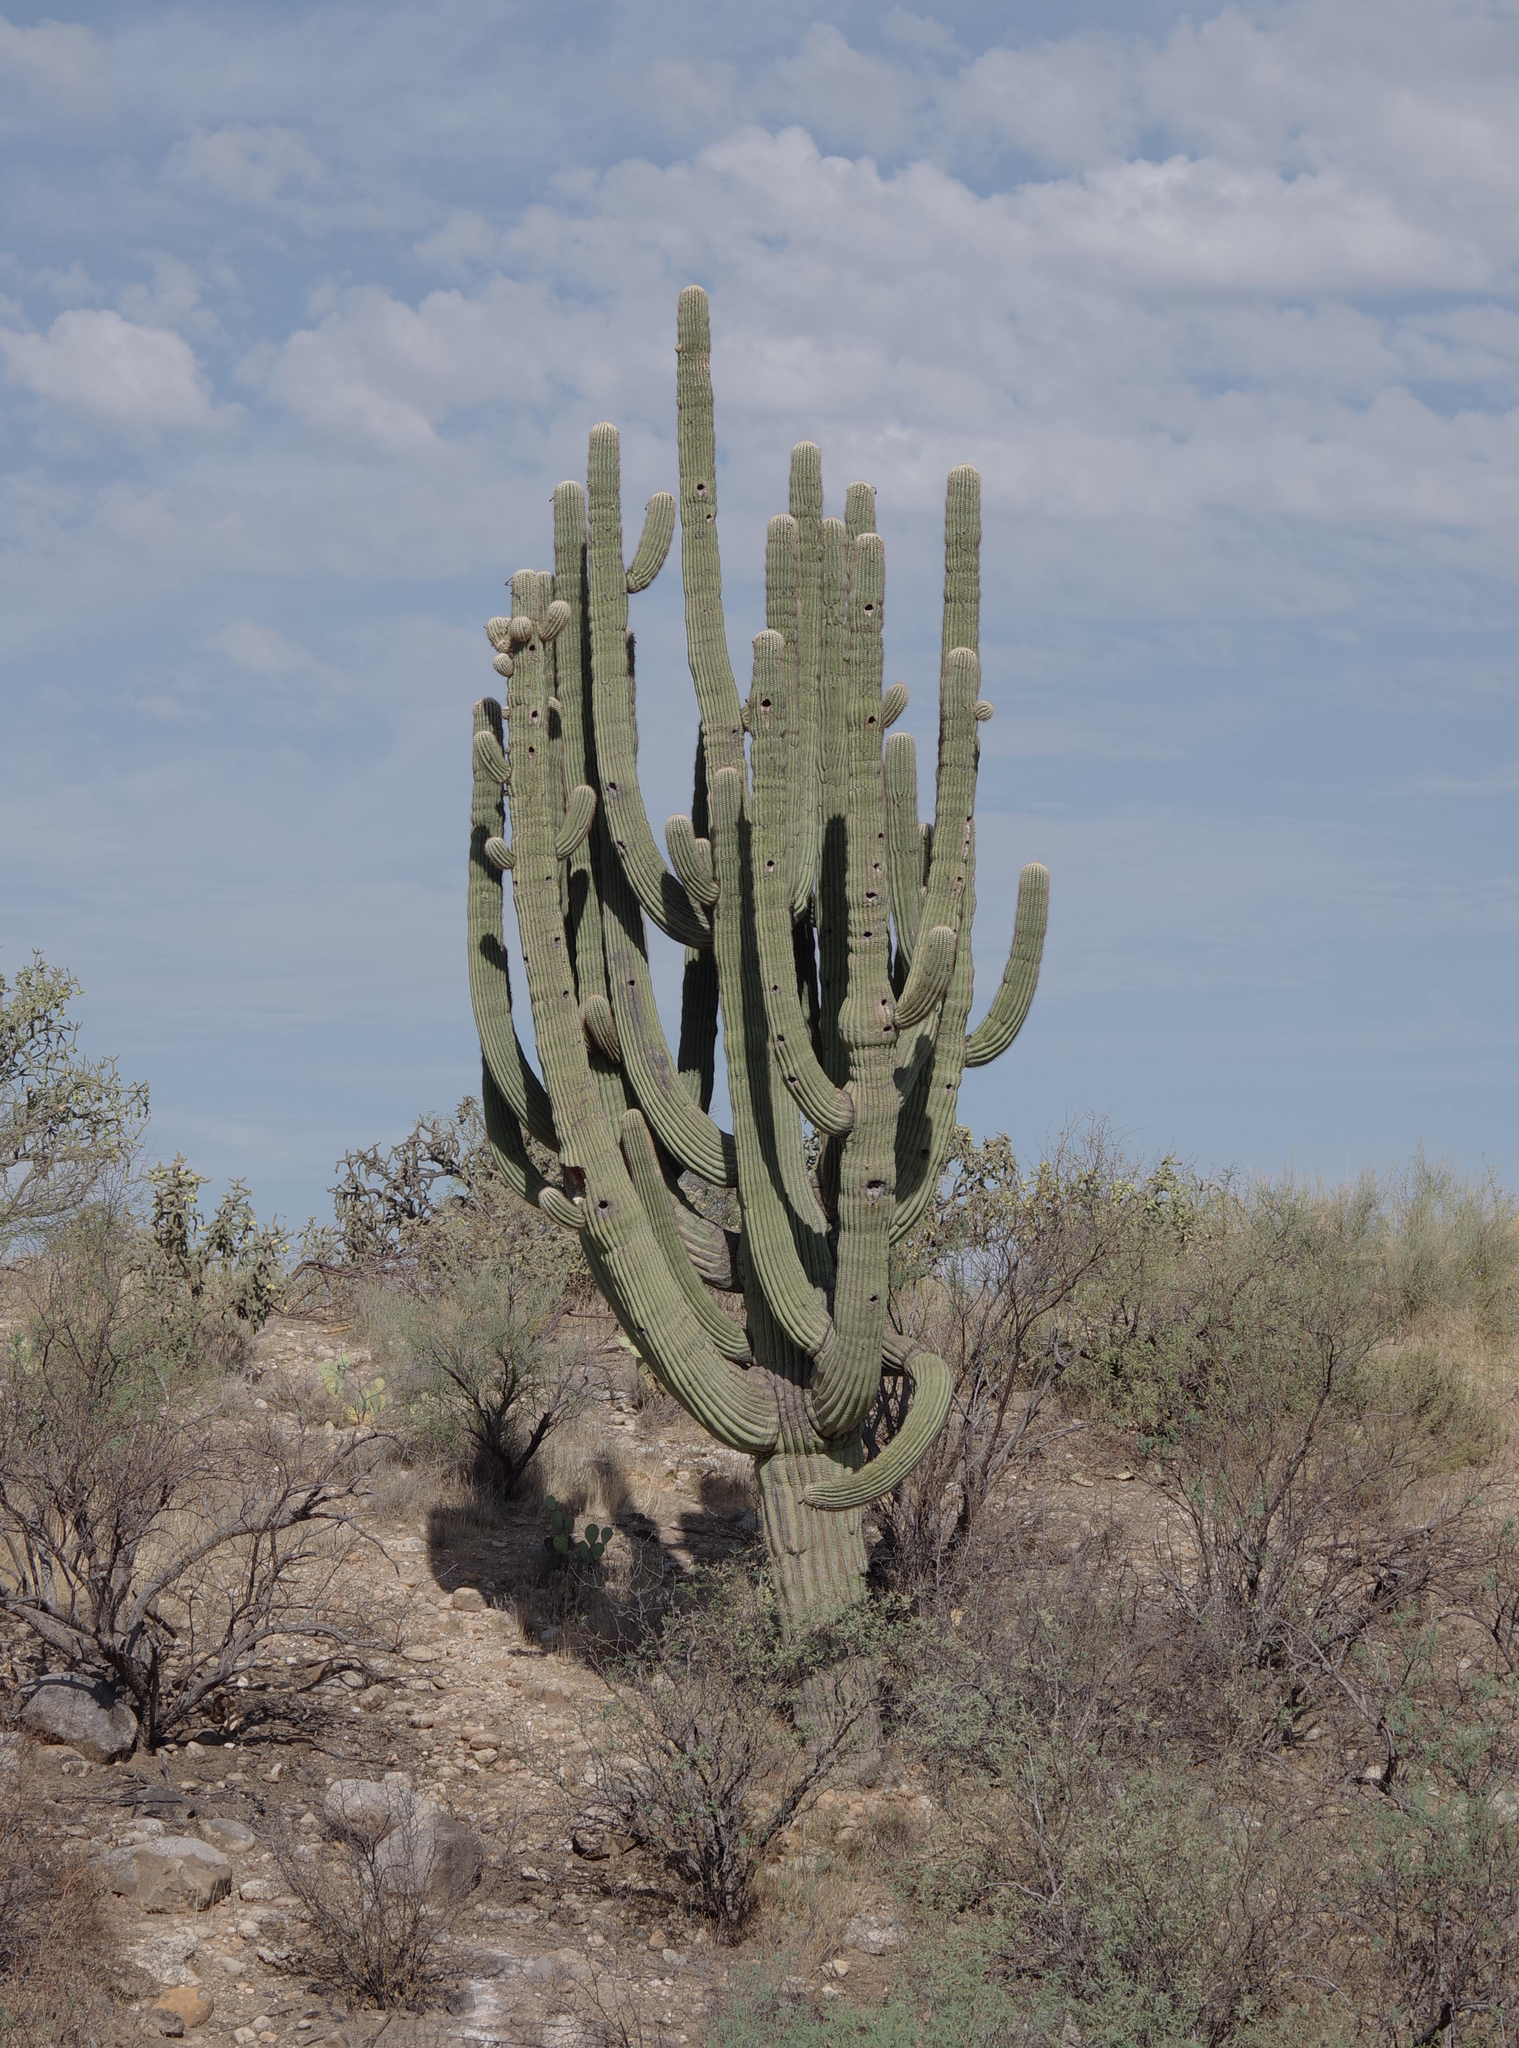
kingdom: Plantae
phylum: Tracheophyta
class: Magnoliopsida
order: Caryophyllales
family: Cactaceae
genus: Carnegiea
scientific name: Carnegiea gigantea
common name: Saguaro
